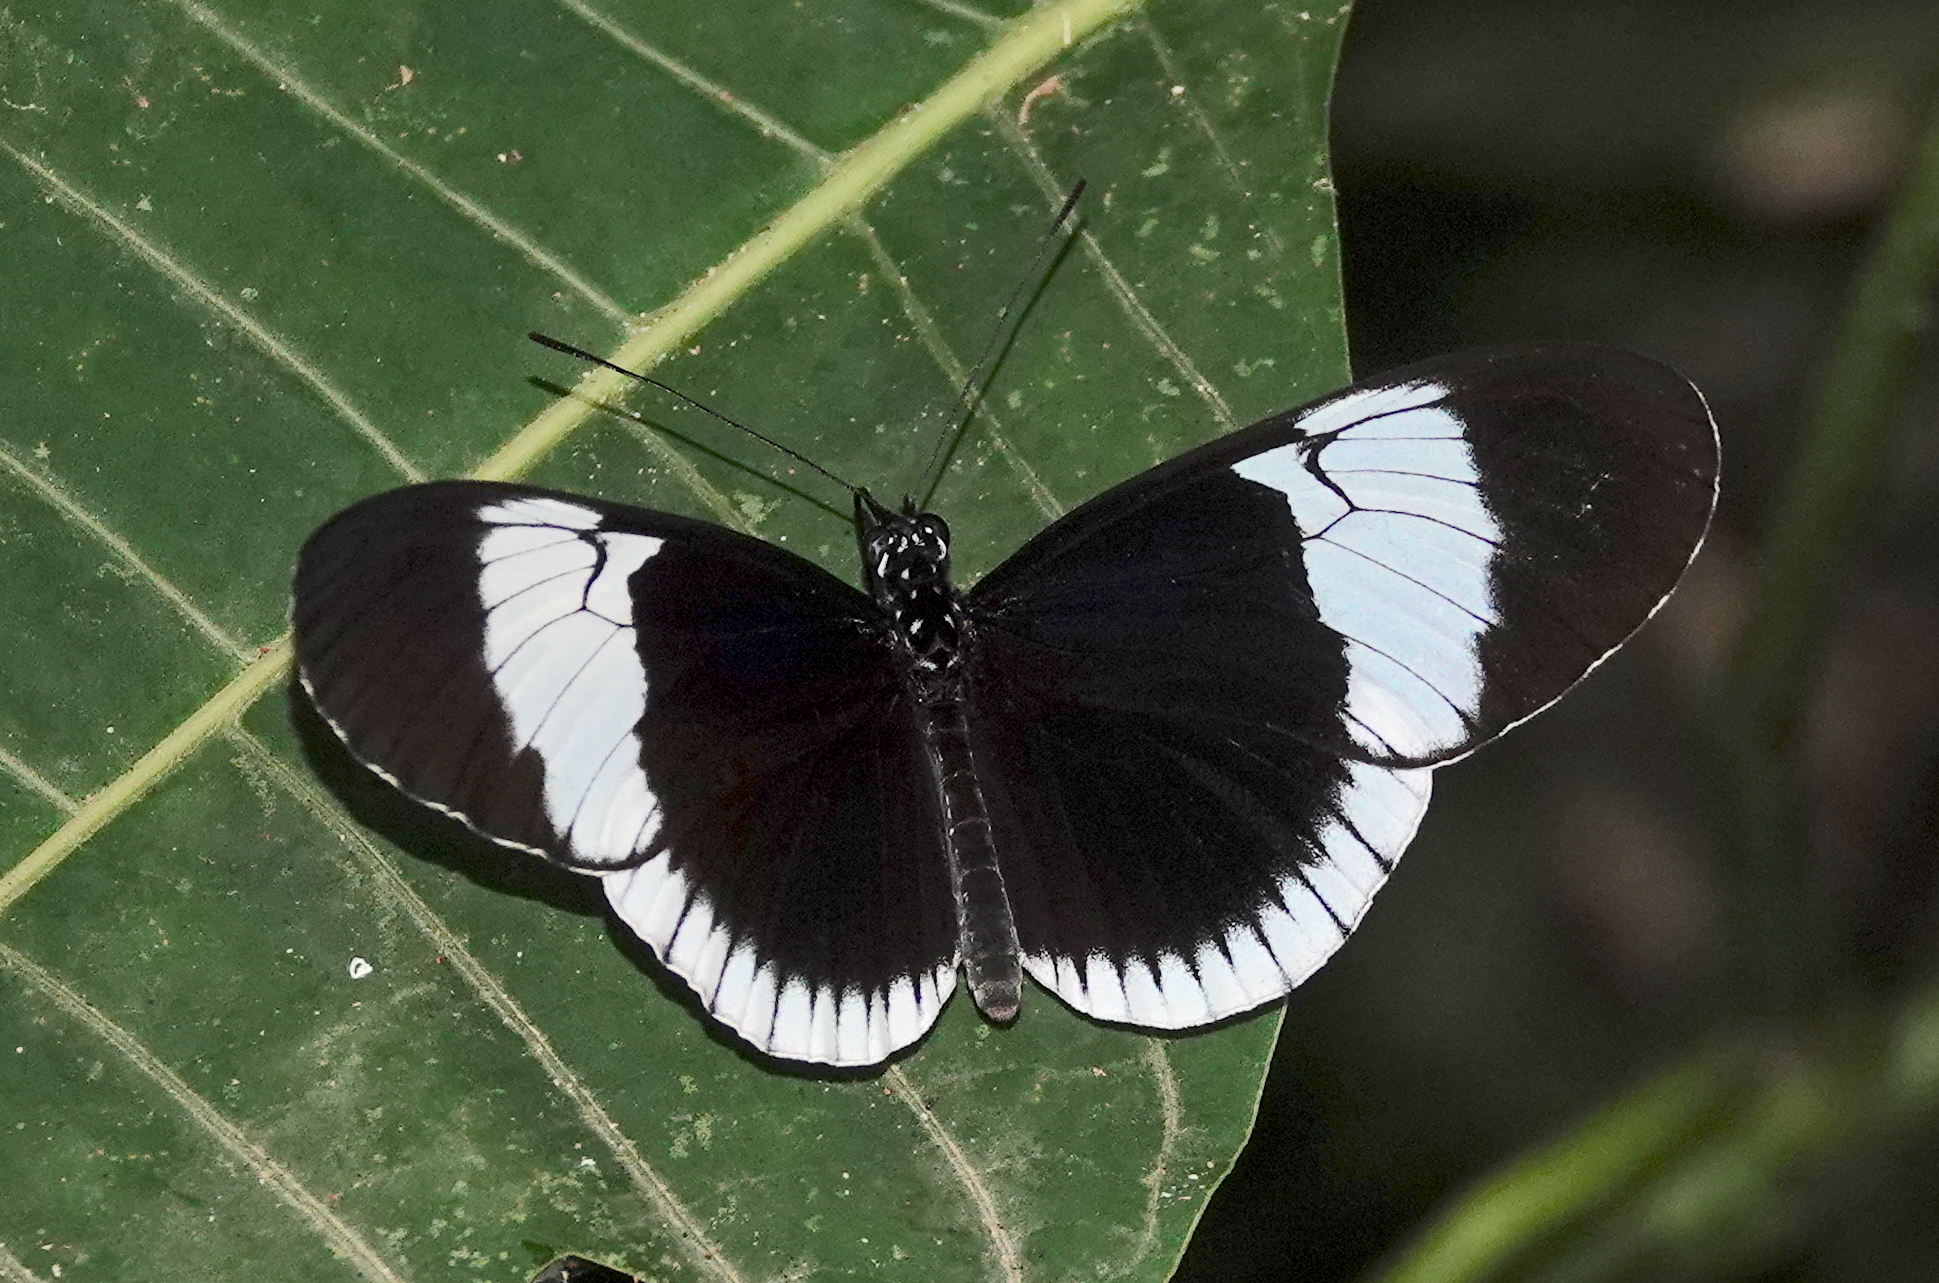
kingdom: Animalia
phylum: Arthropoda
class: Insecta
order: Lepidoptera
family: Nymphalidae
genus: Heliconius
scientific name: Heliconius sapho
